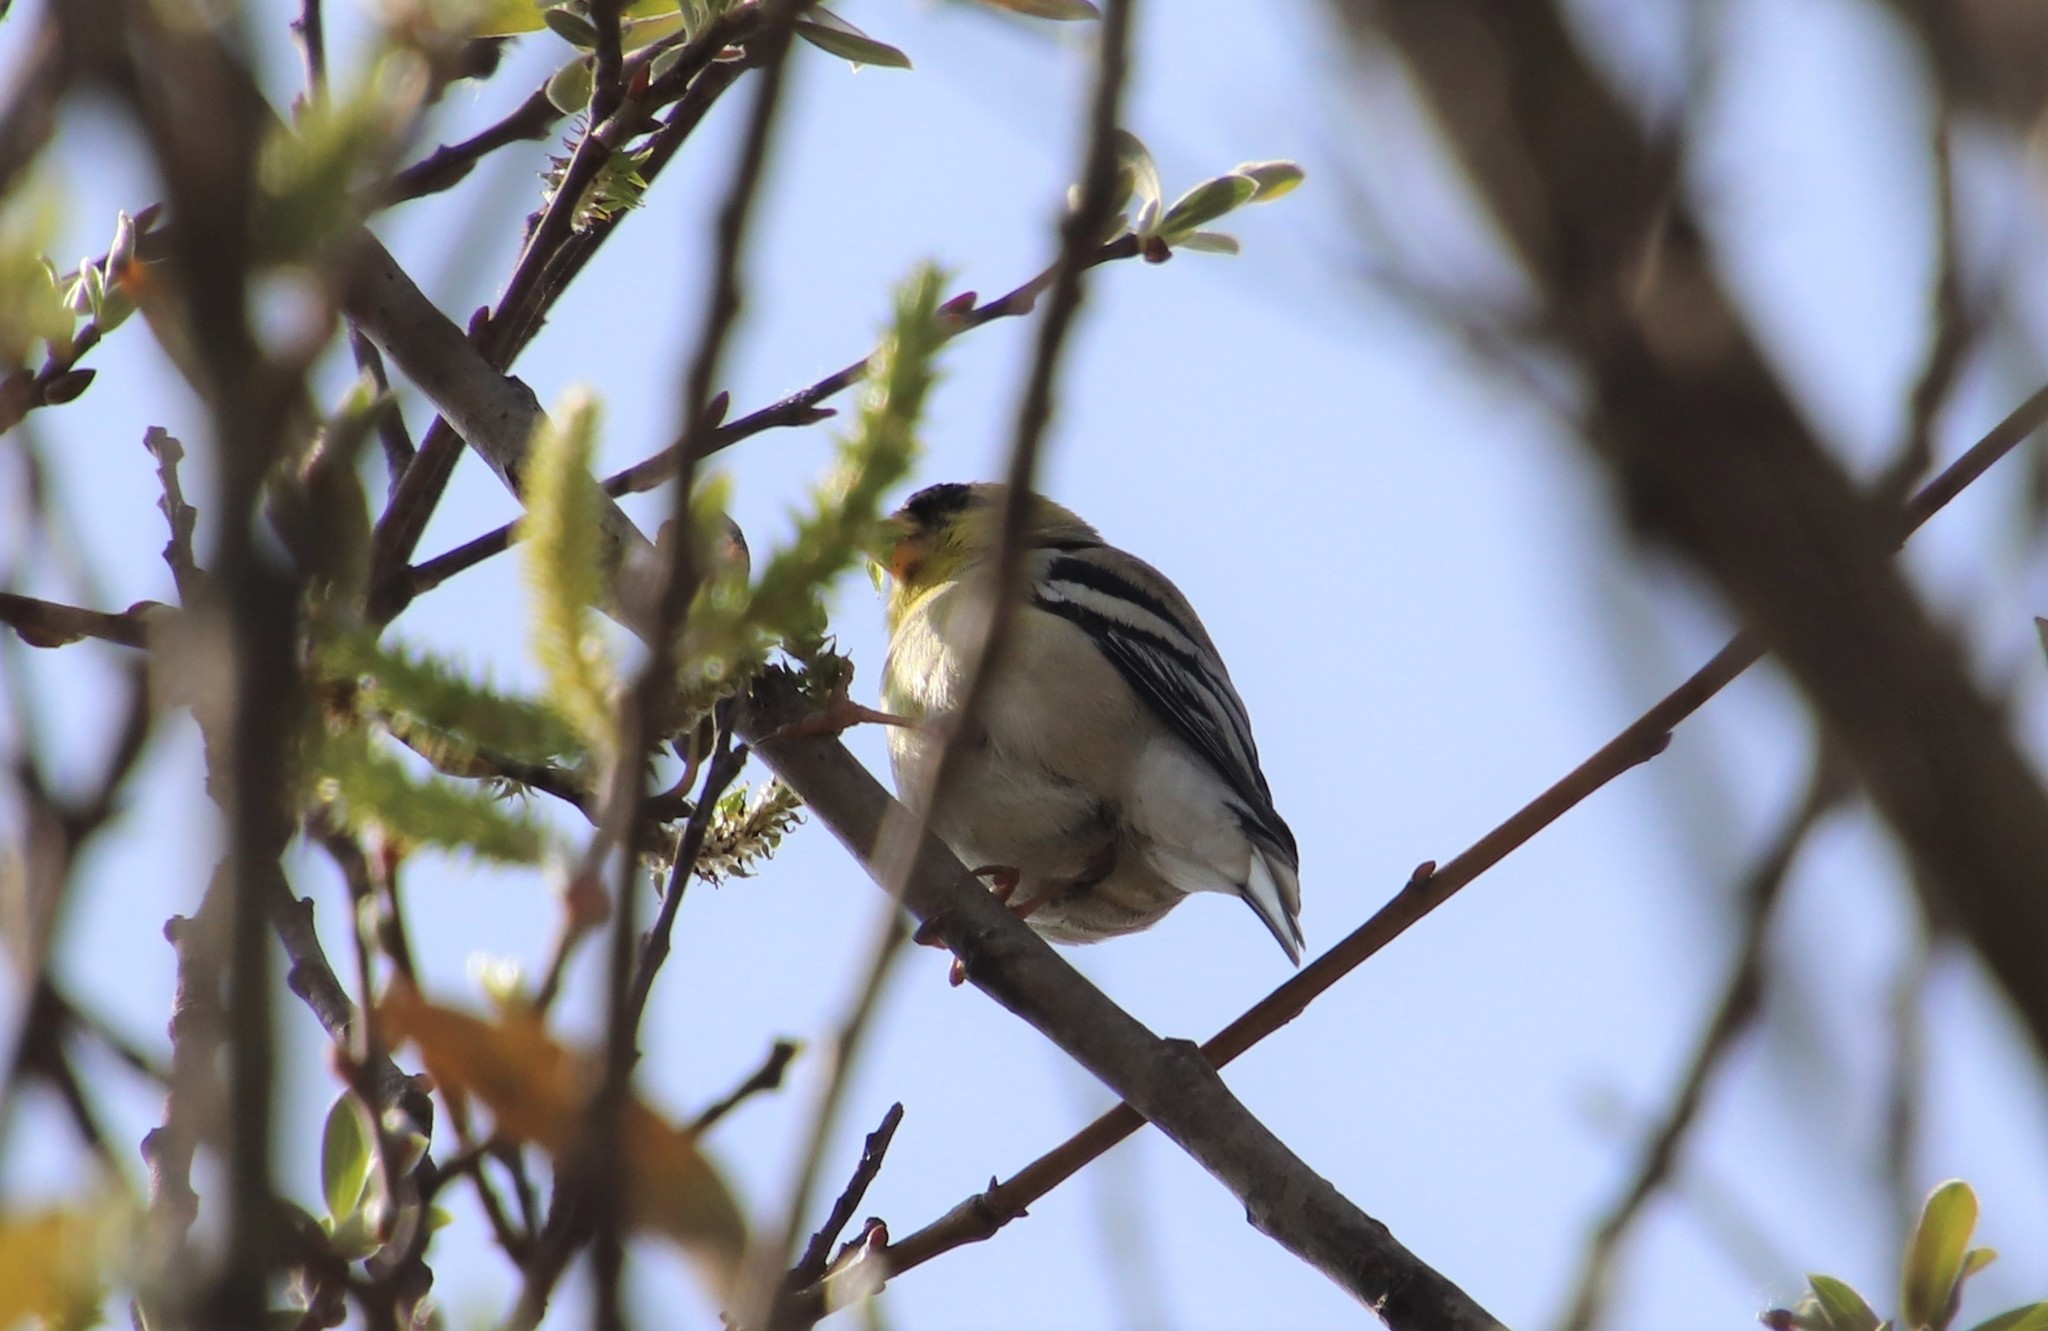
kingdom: Animalia
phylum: Chordata
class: Aves
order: Passeriformes
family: Fringillidae
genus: Spinus
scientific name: Spinus tristis
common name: American goldfinch
